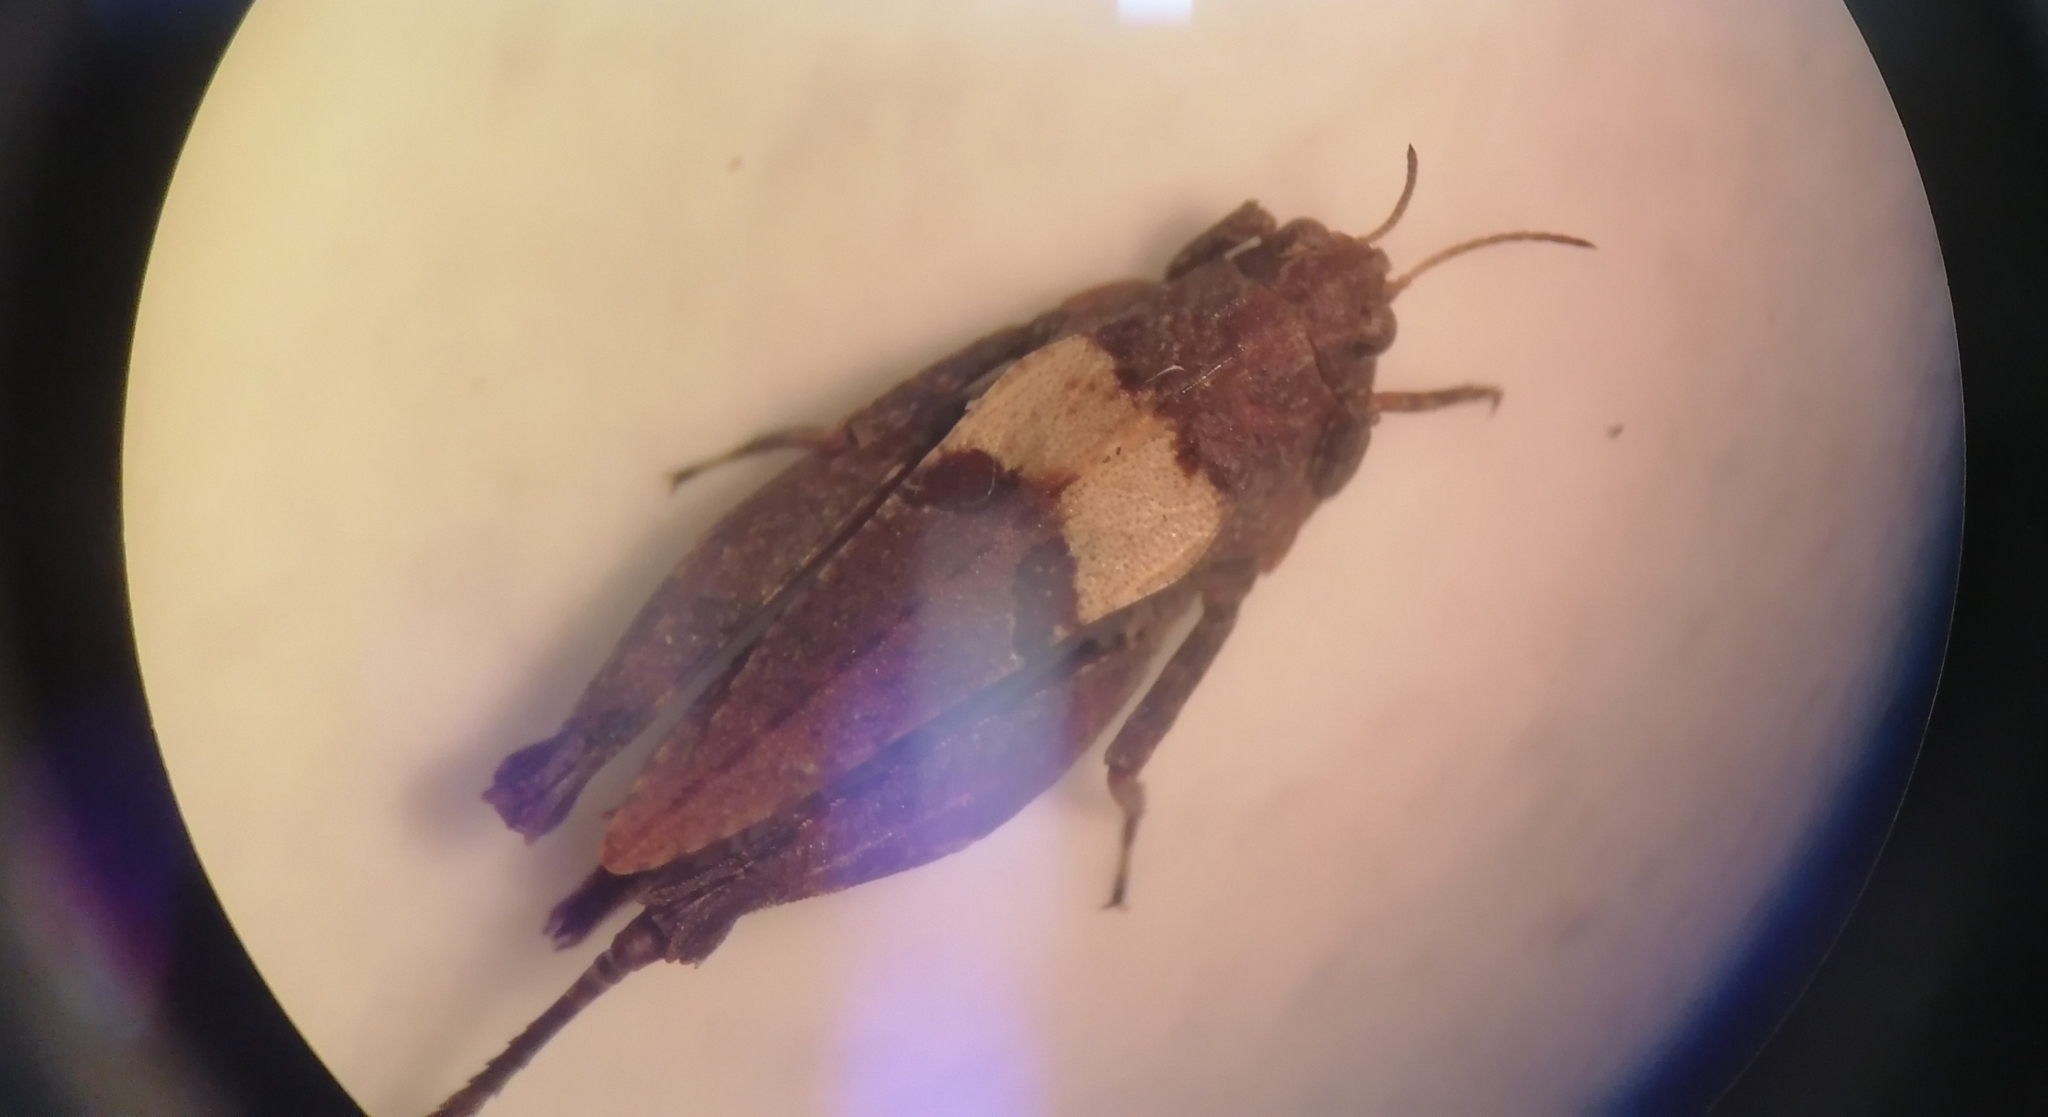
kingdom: Animalia
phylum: Arthropoda
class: Insecta
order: Orthoptera
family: Tetrigidae
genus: Tetrix
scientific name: Tetrix kraussi
